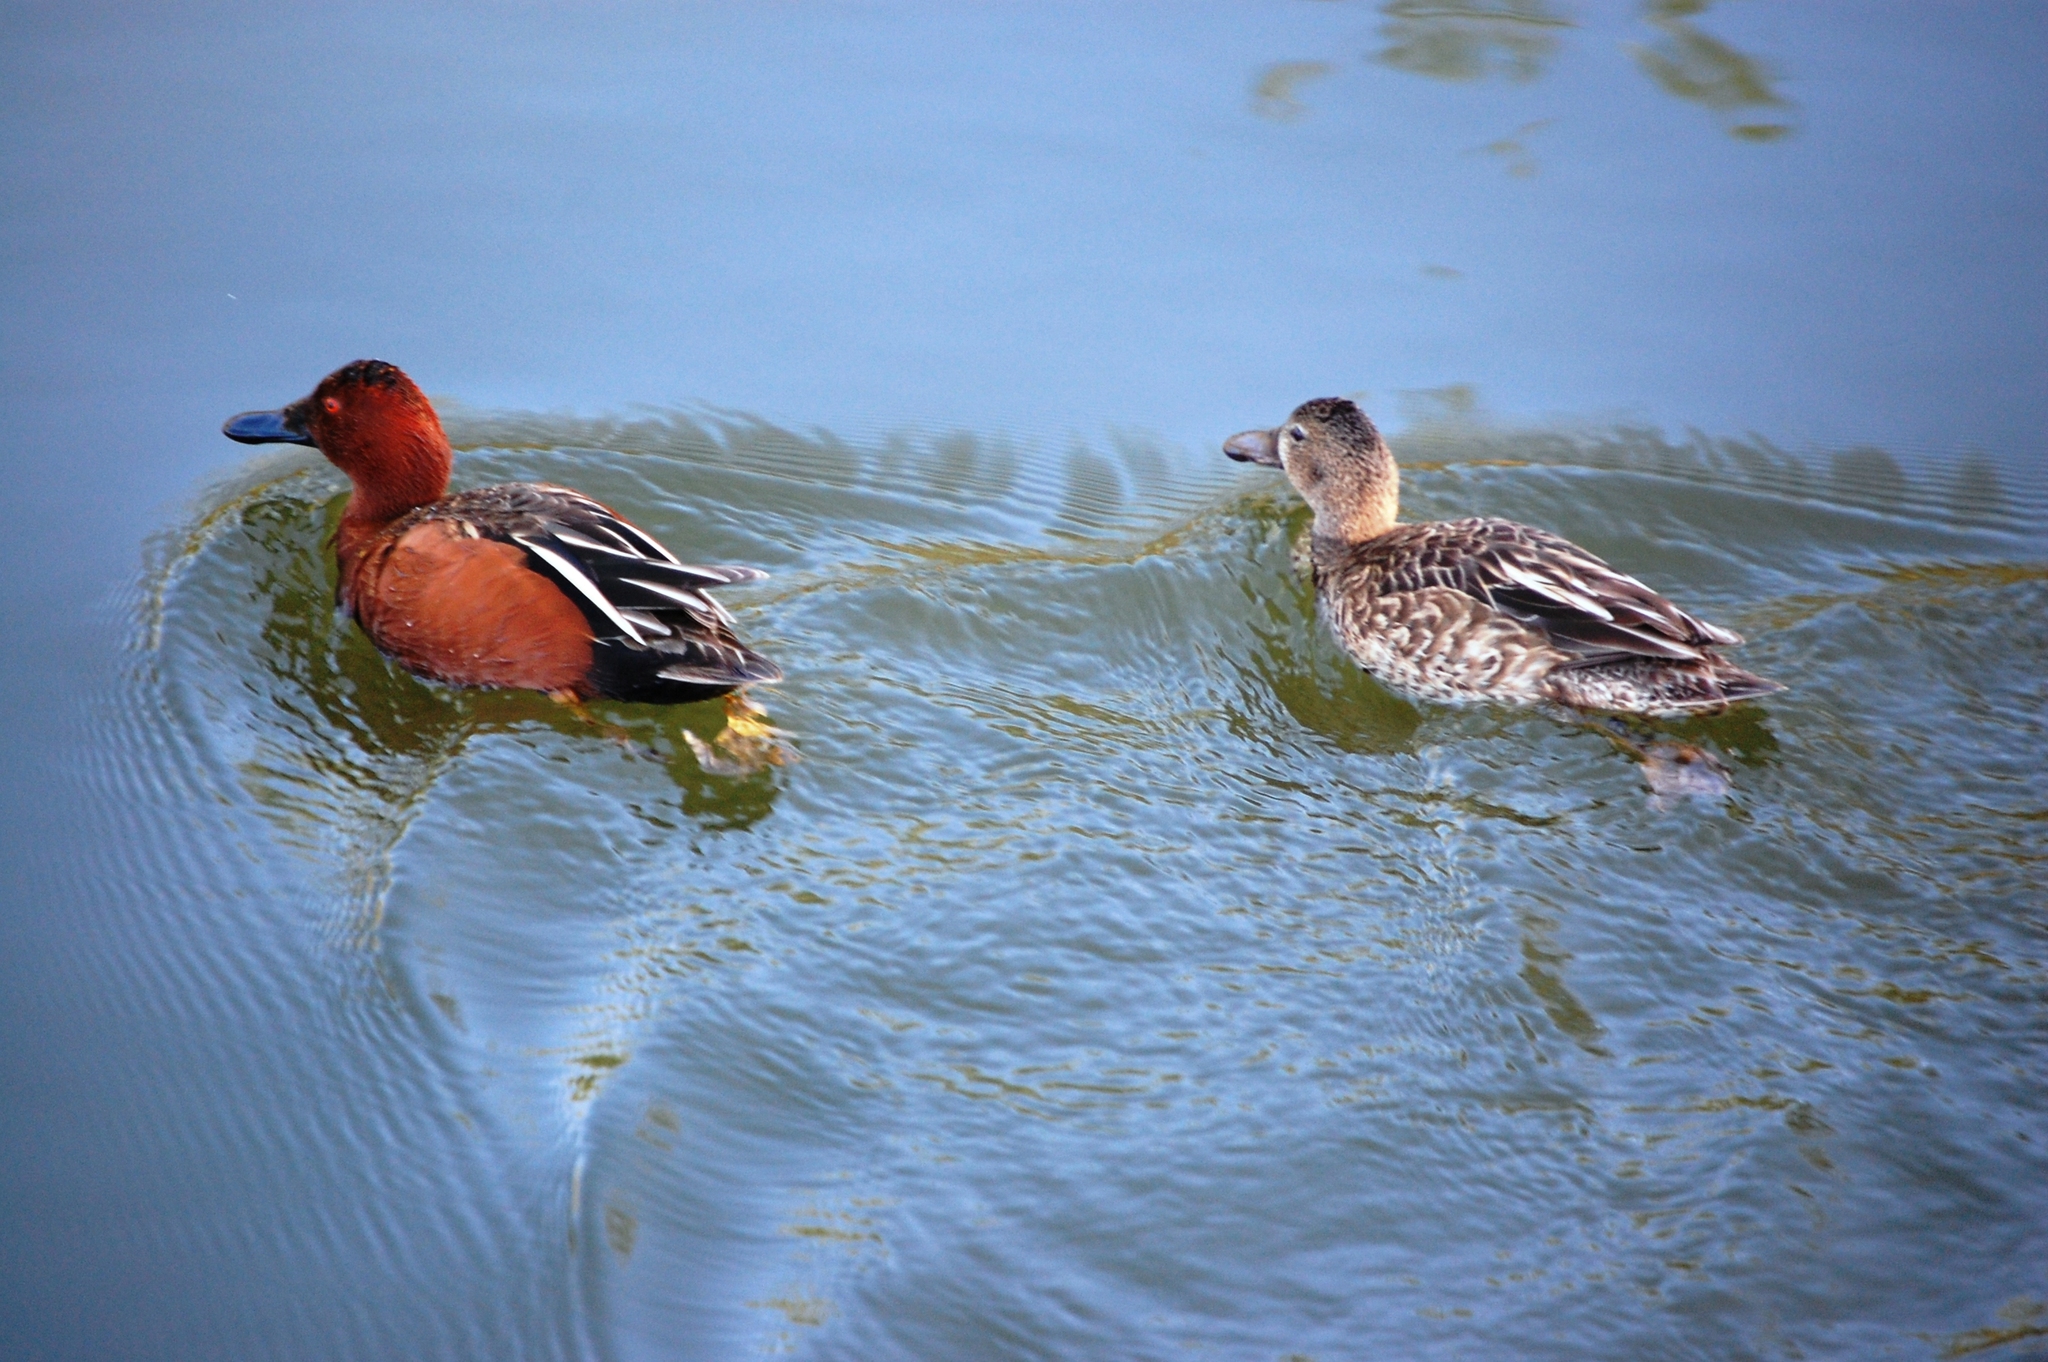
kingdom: Animalia
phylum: Chordata
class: Aves
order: Anseriformes
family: Anatidae
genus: Spatula
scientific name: Spatula cyanoptera
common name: Cinnamon teal
